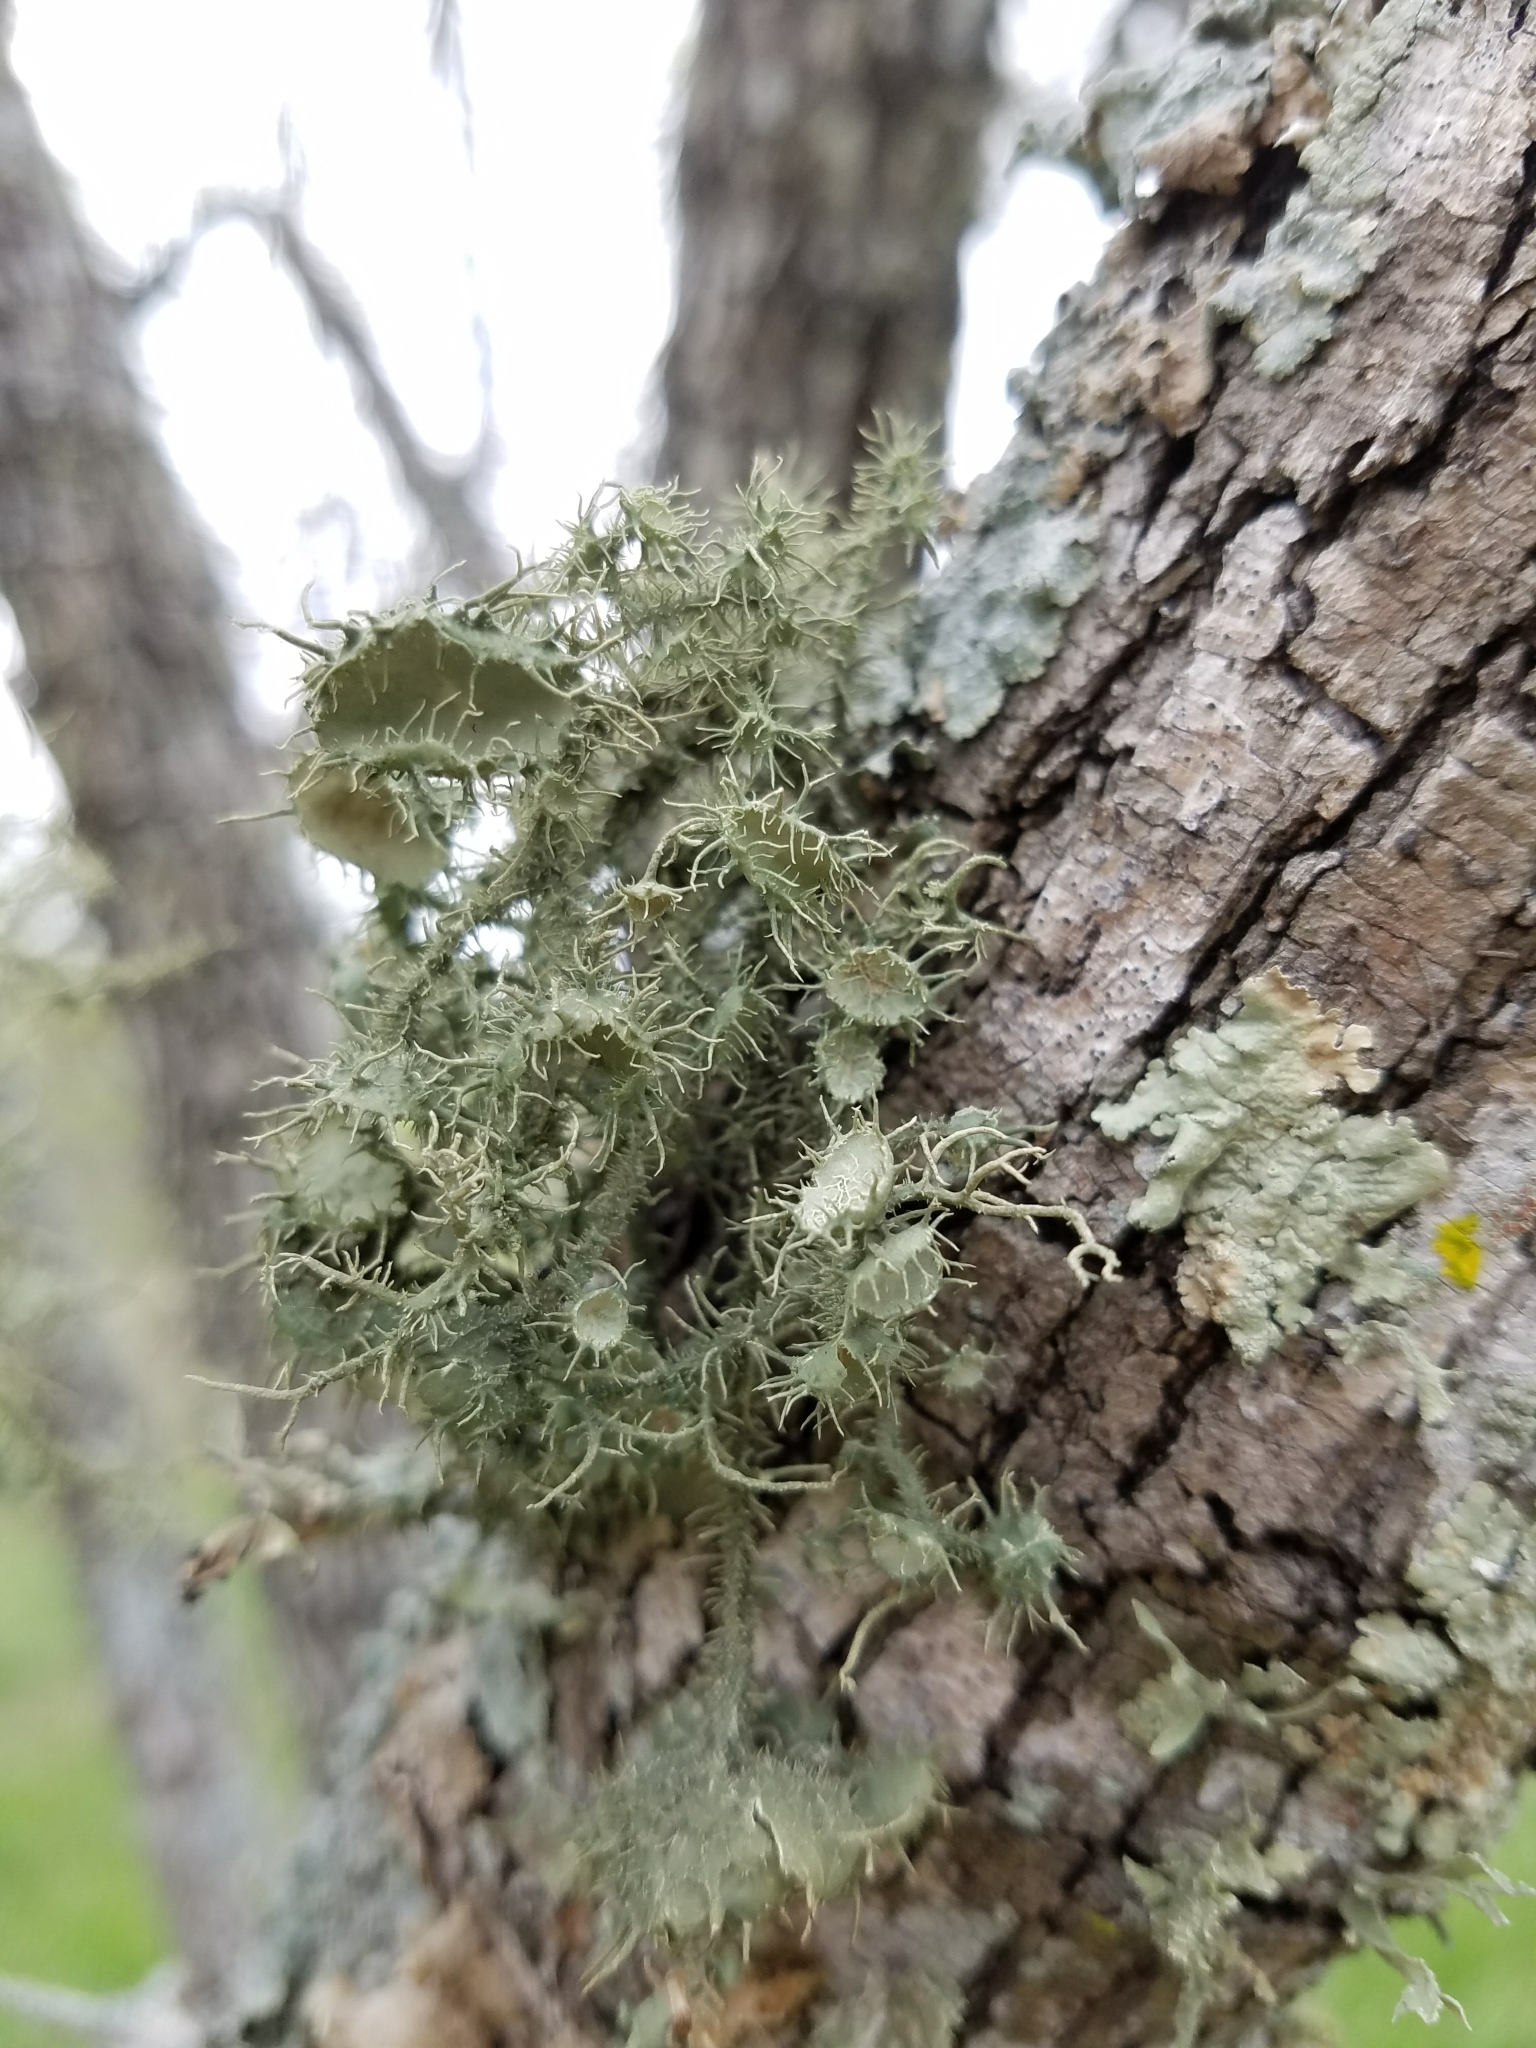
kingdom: Fungi
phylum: Ascomycota
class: Lecanoromycetes
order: Lecanorales
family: Parmeliaceae
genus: Usnea
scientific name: Usnea strigosa
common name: Bushy beard lichen
